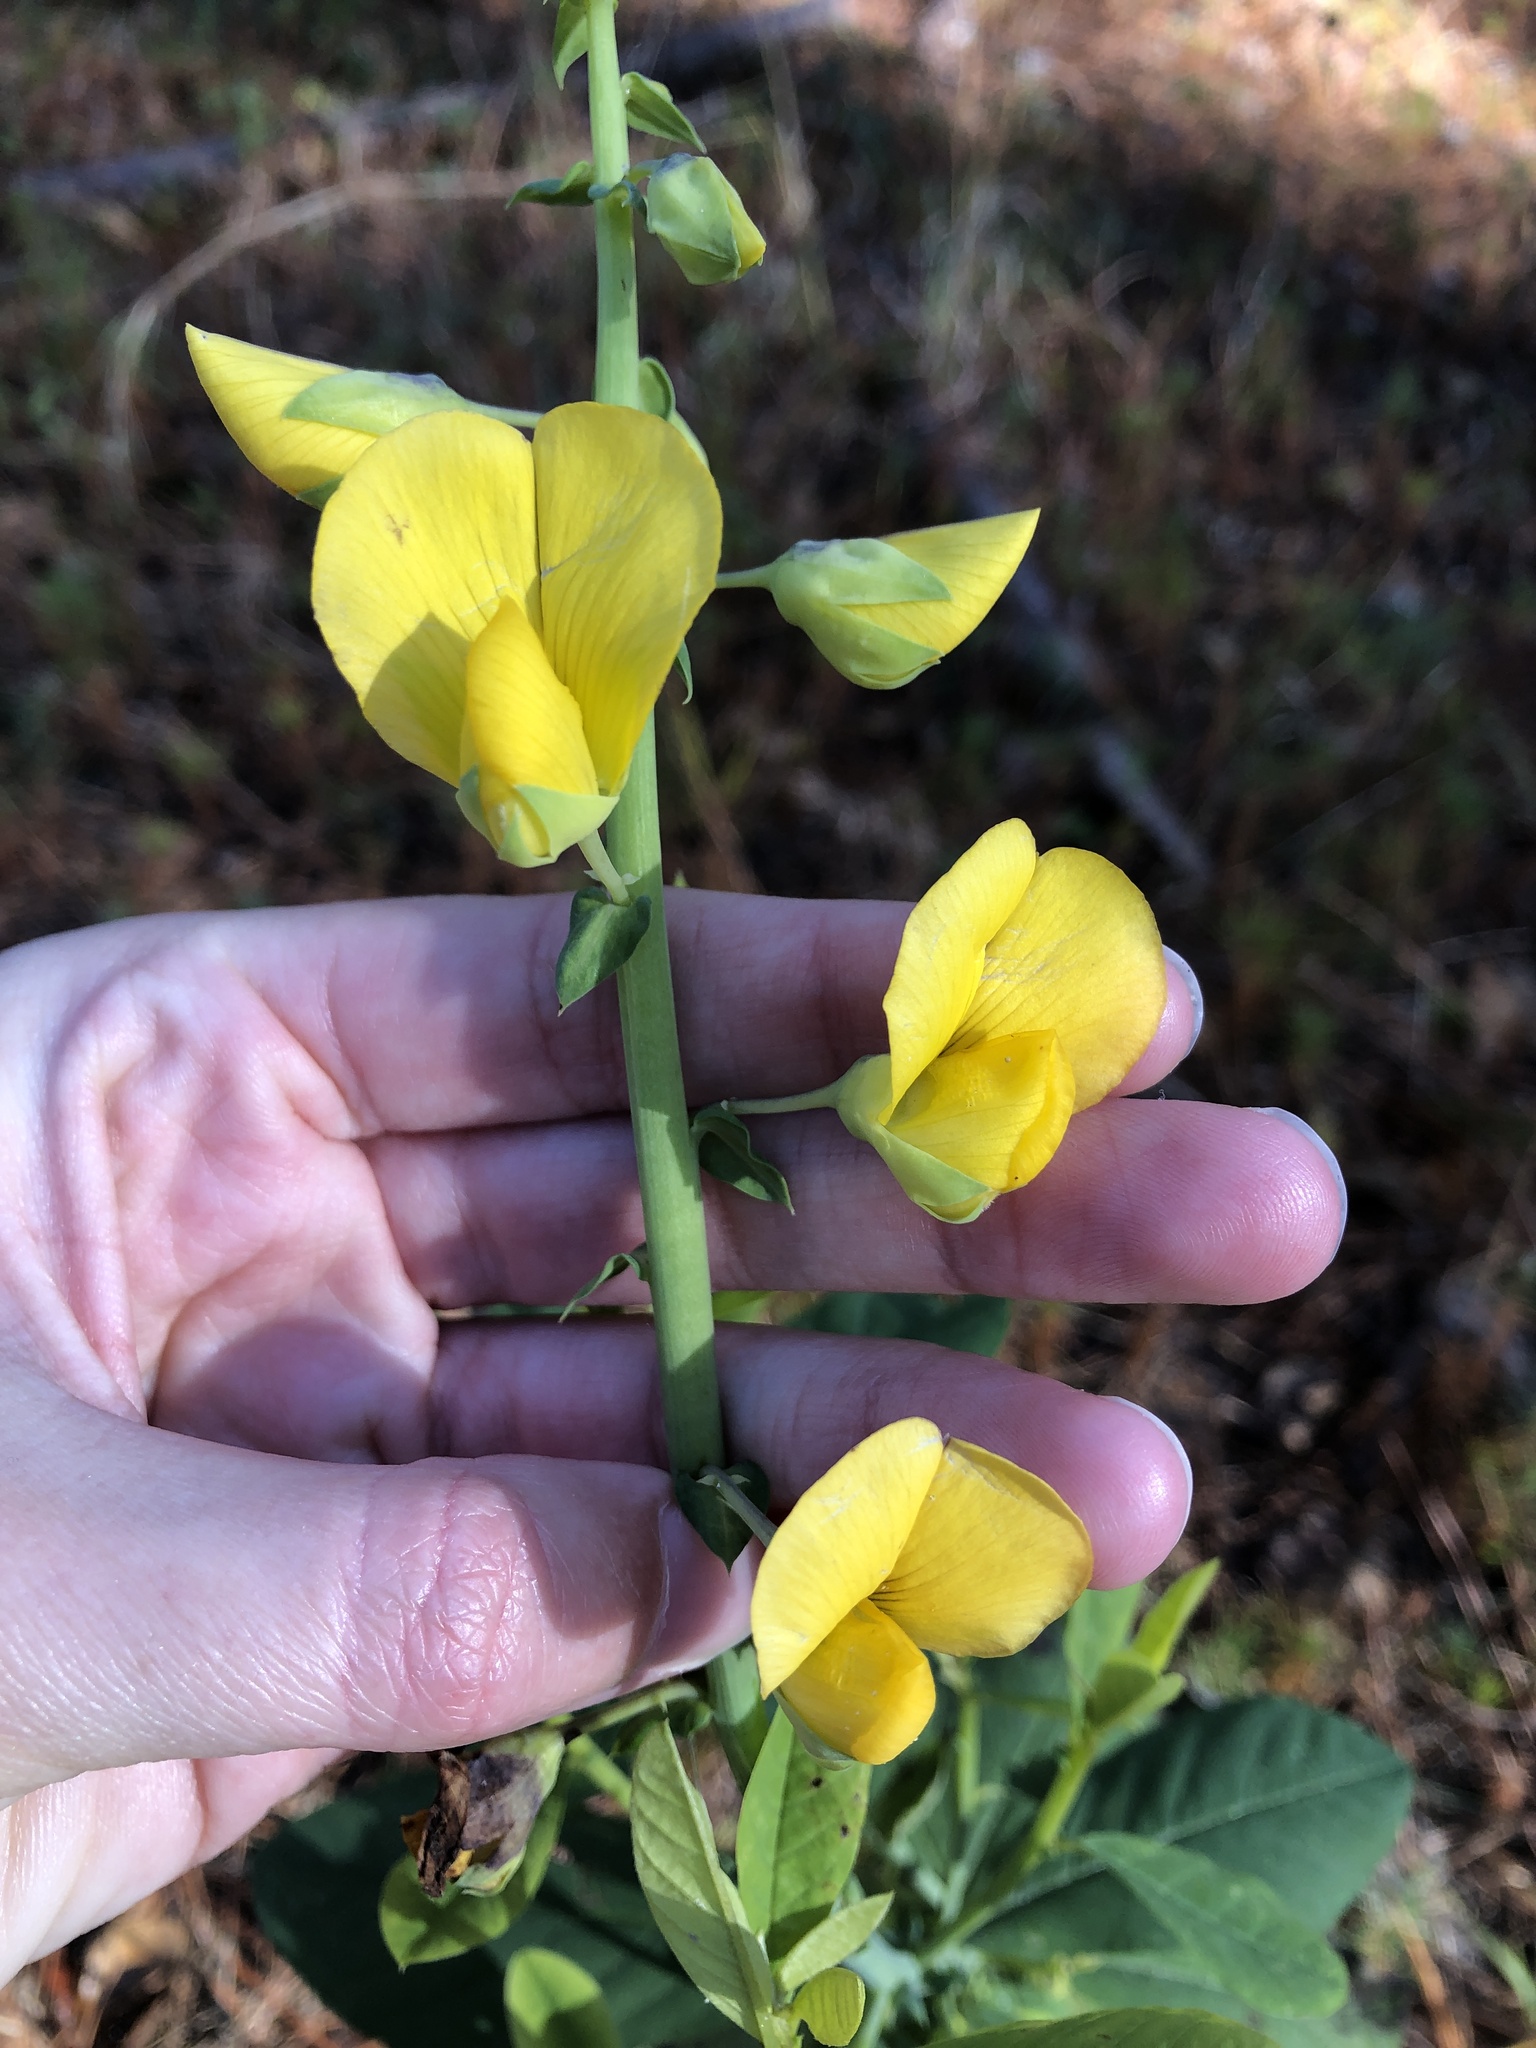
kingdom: Plantae
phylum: Tracheophyta
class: Magnoliopsida
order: Fabales
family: Fabaceae
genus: Crotalaria
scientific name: Crotalaria spectabilis
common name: Showy rattlebox
